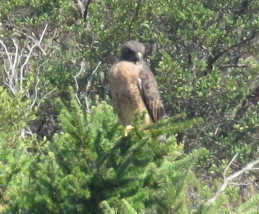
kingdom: Animalia
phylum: Chordata
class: Aves
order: Accipitriformes
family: Accipitridae
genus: Buteo
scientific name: Buteo jamaicensis
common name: Red-tailed hawk
